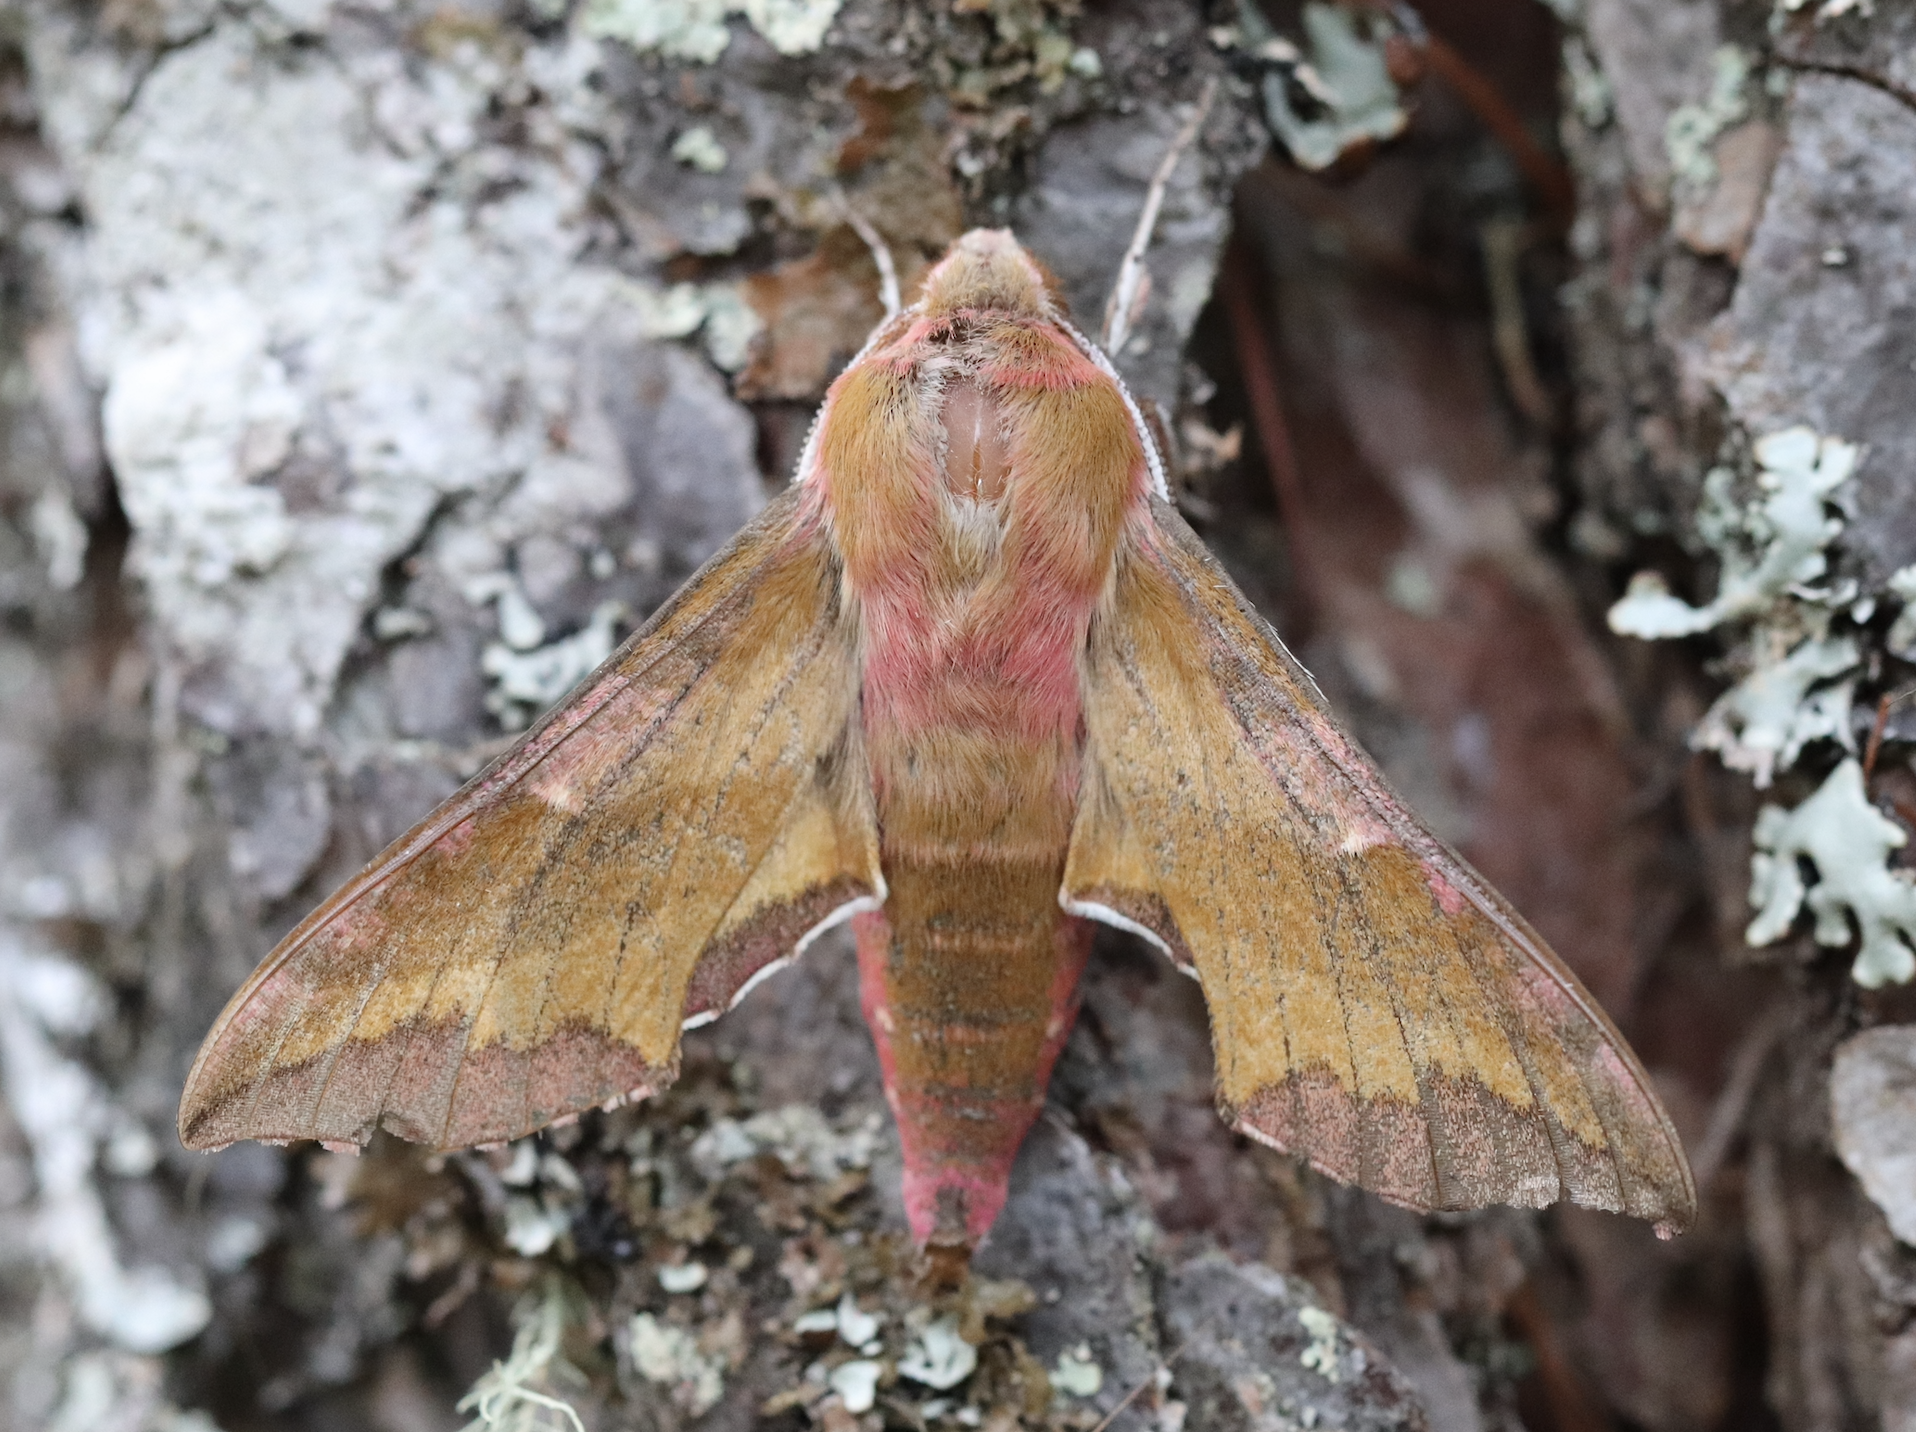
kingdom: Animalia
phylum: Arthropoda
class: Insecta
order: Lepidoptera
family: Sphingidae
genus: Deilephila
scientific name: Deilephila porcellus
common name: Small elephant hawk-moth
